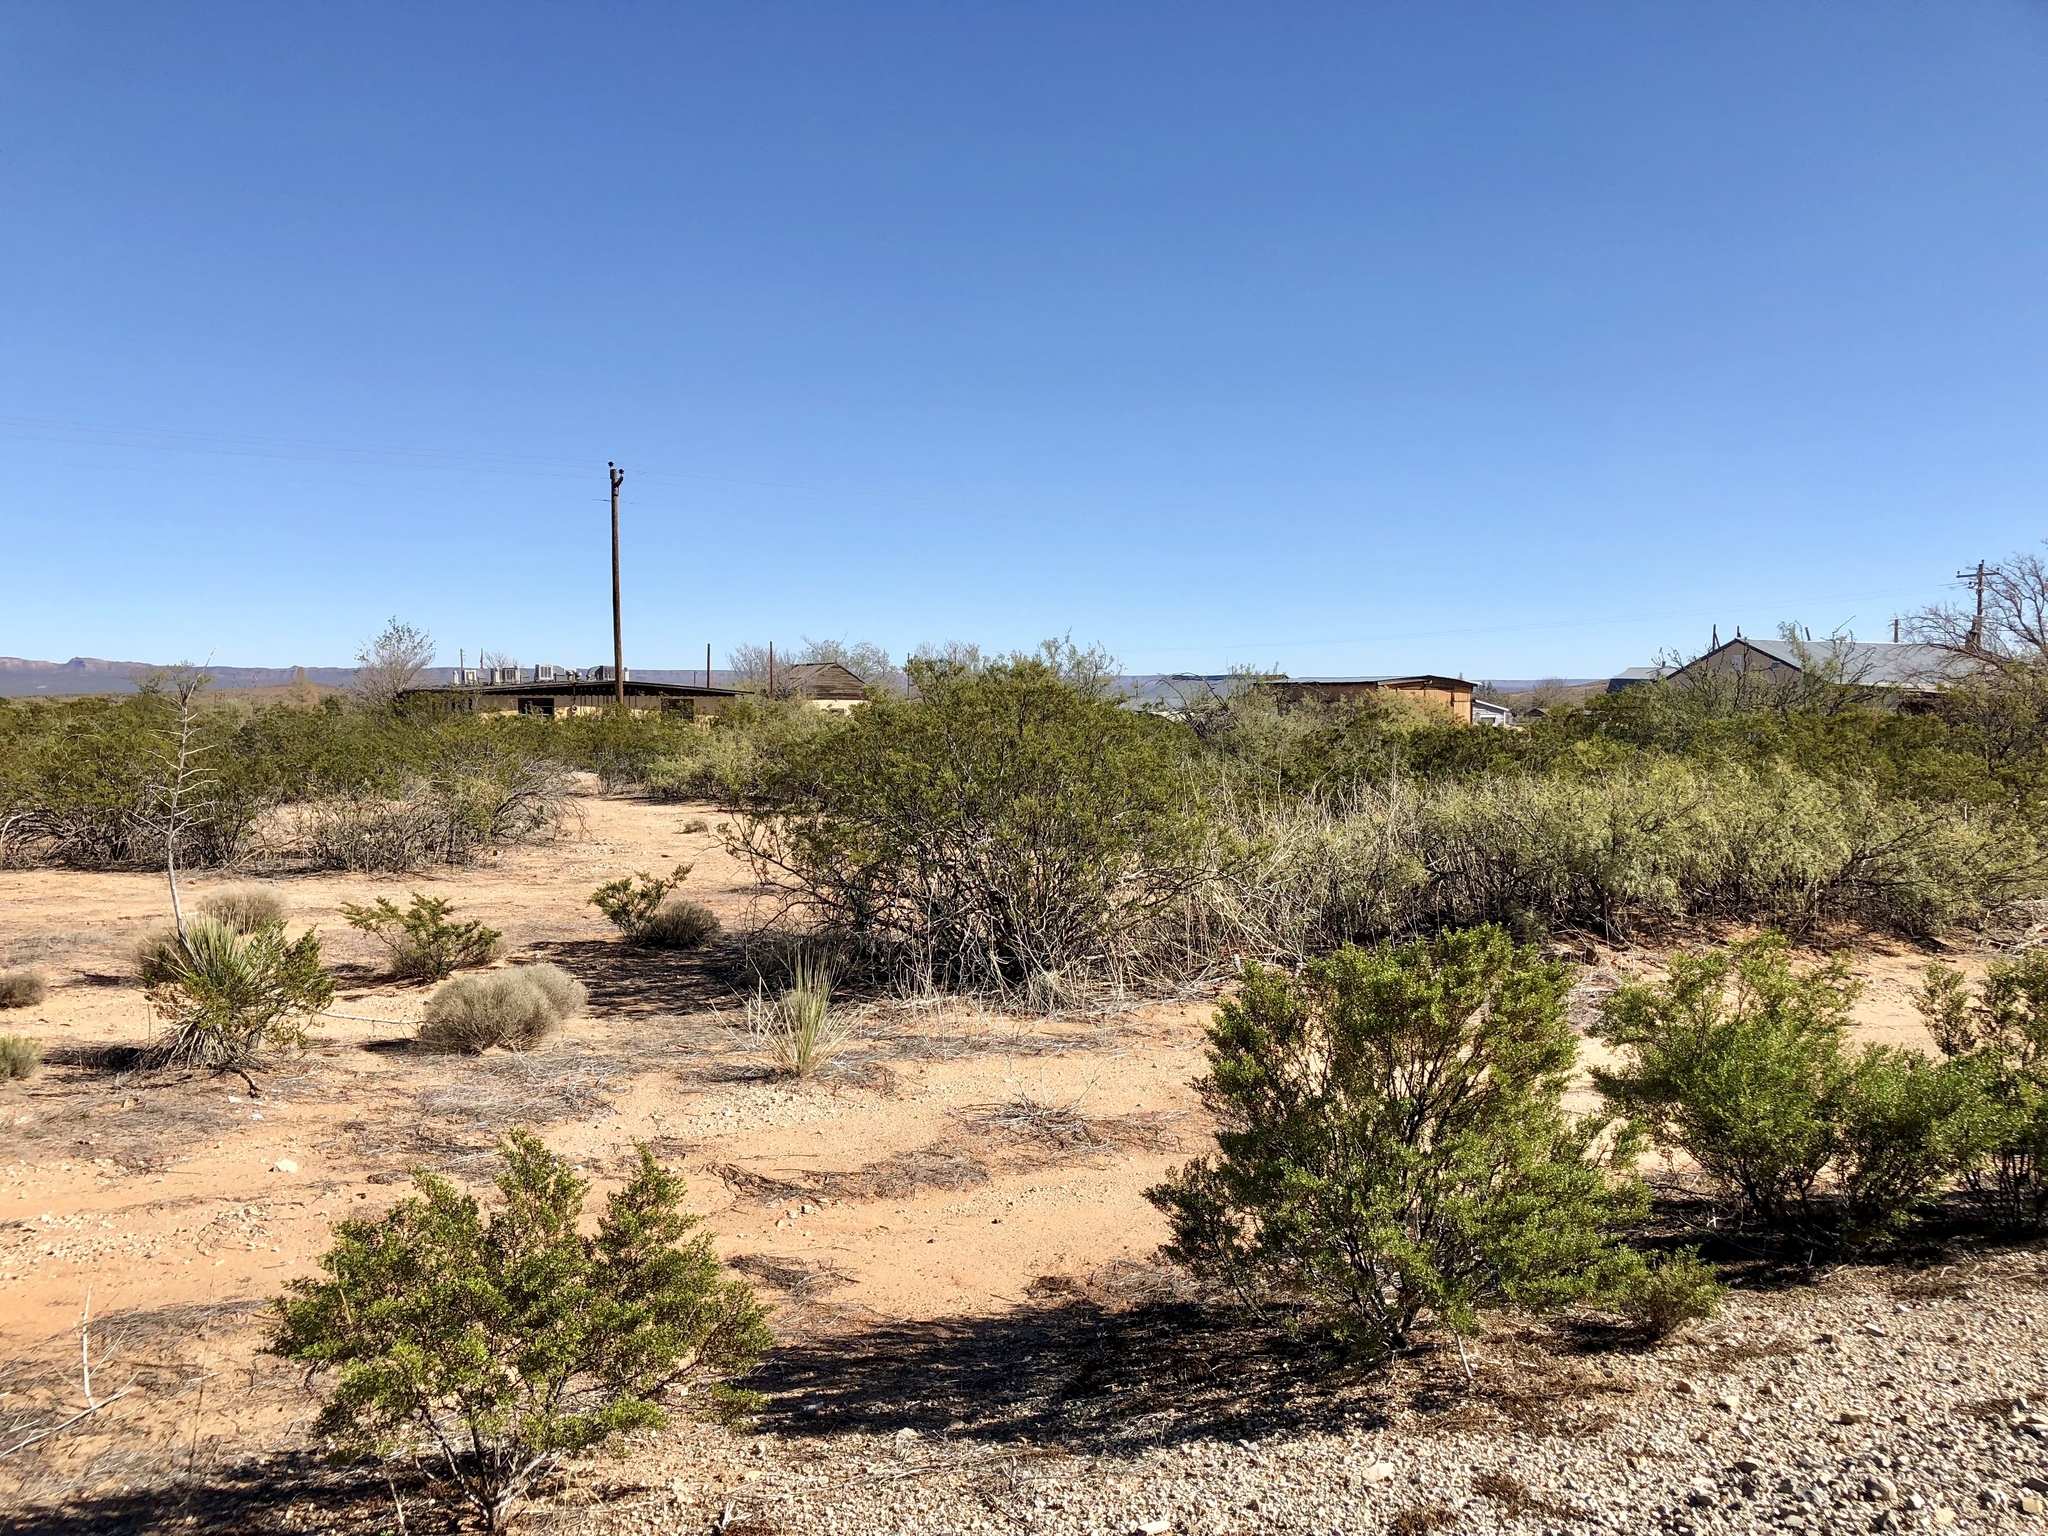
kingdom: Plantae
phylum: Tracheophyta
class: Magnoliopsida
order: Zygophyllales
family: Zygophyllaceae
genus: Larrea
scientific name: Larrea tridentata
